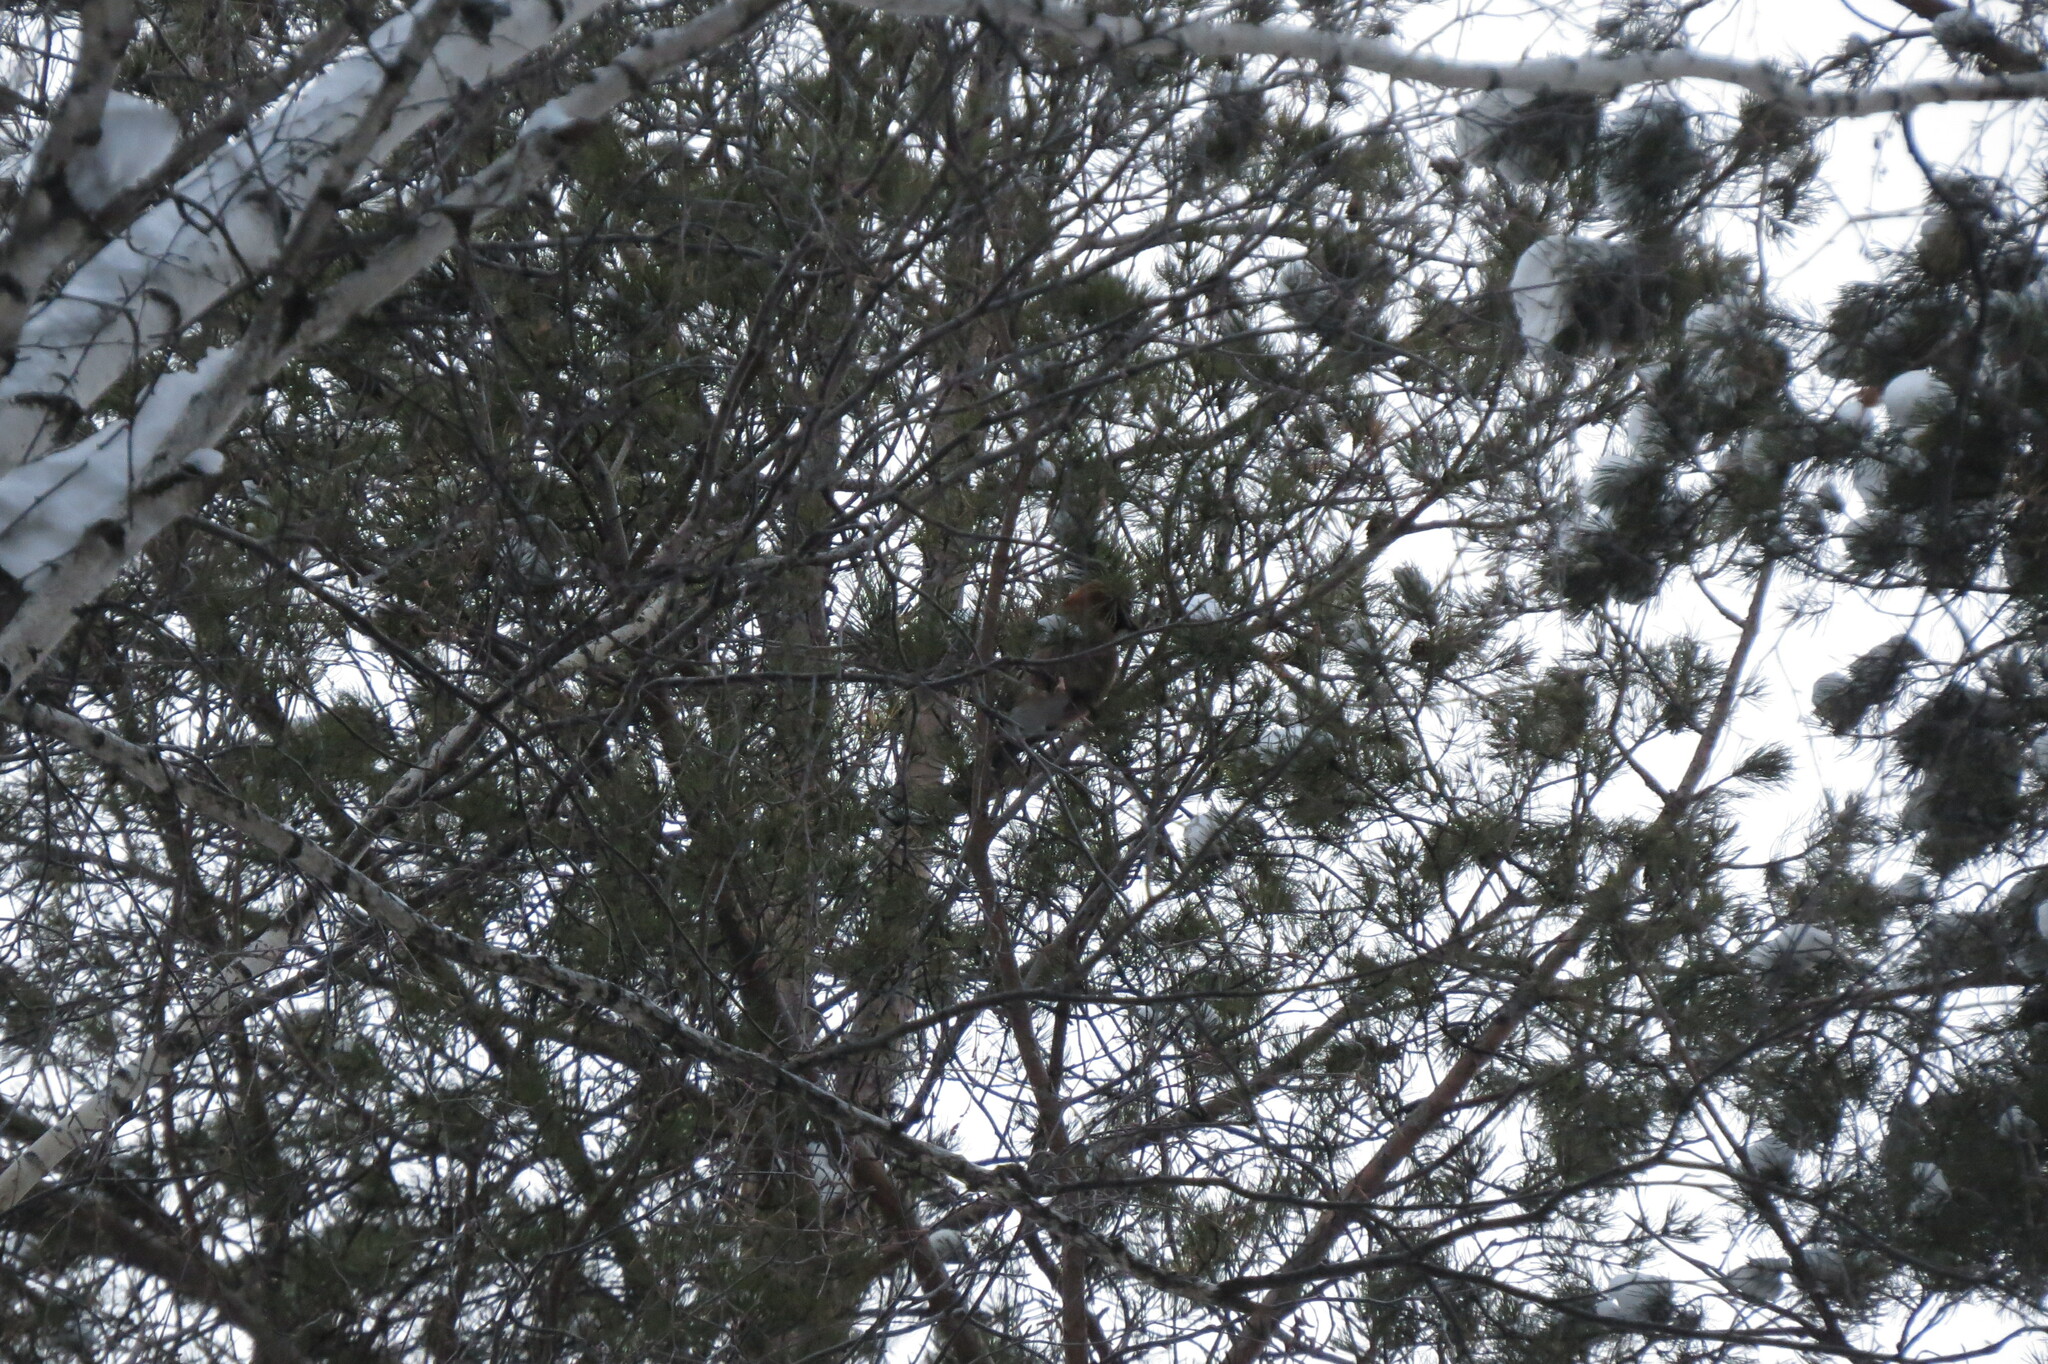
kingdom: Animalia
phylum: Chordata
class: Aves
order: Passeriformes
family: Corvidae
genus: Garrulus
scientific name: Garrulus glandarius
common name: Eurasian jay
